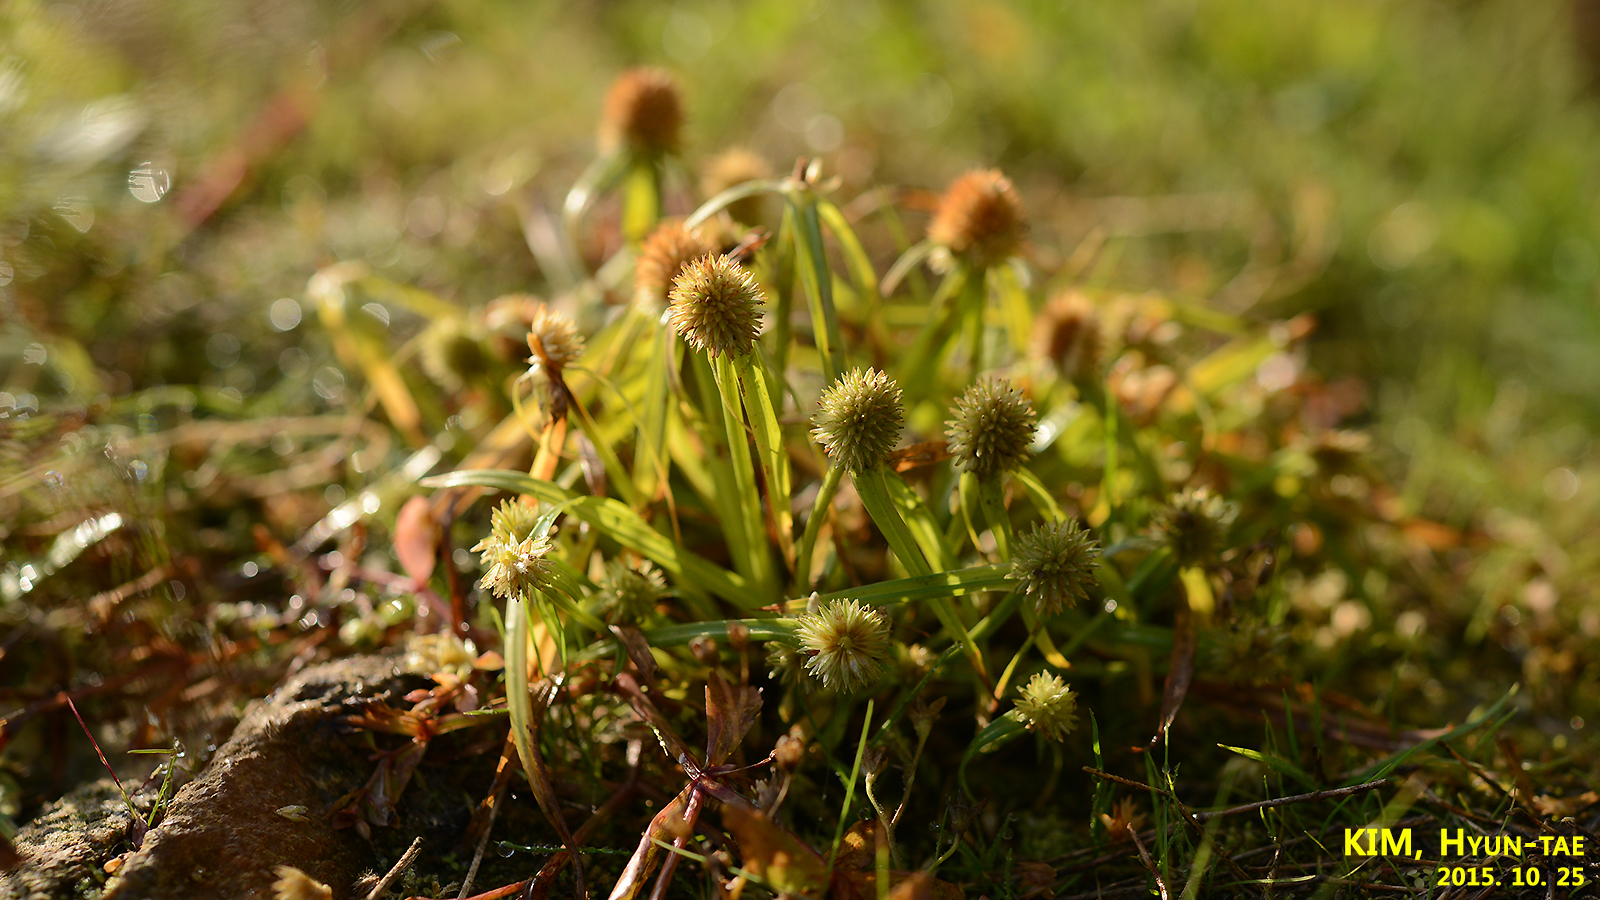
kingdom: Plantae
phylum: Tracheophyta
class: Liliopsida
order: Poales
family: Cyperaceae
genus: Cyperus
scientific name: Cyperus brevifolius
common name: Globe kyllinga
